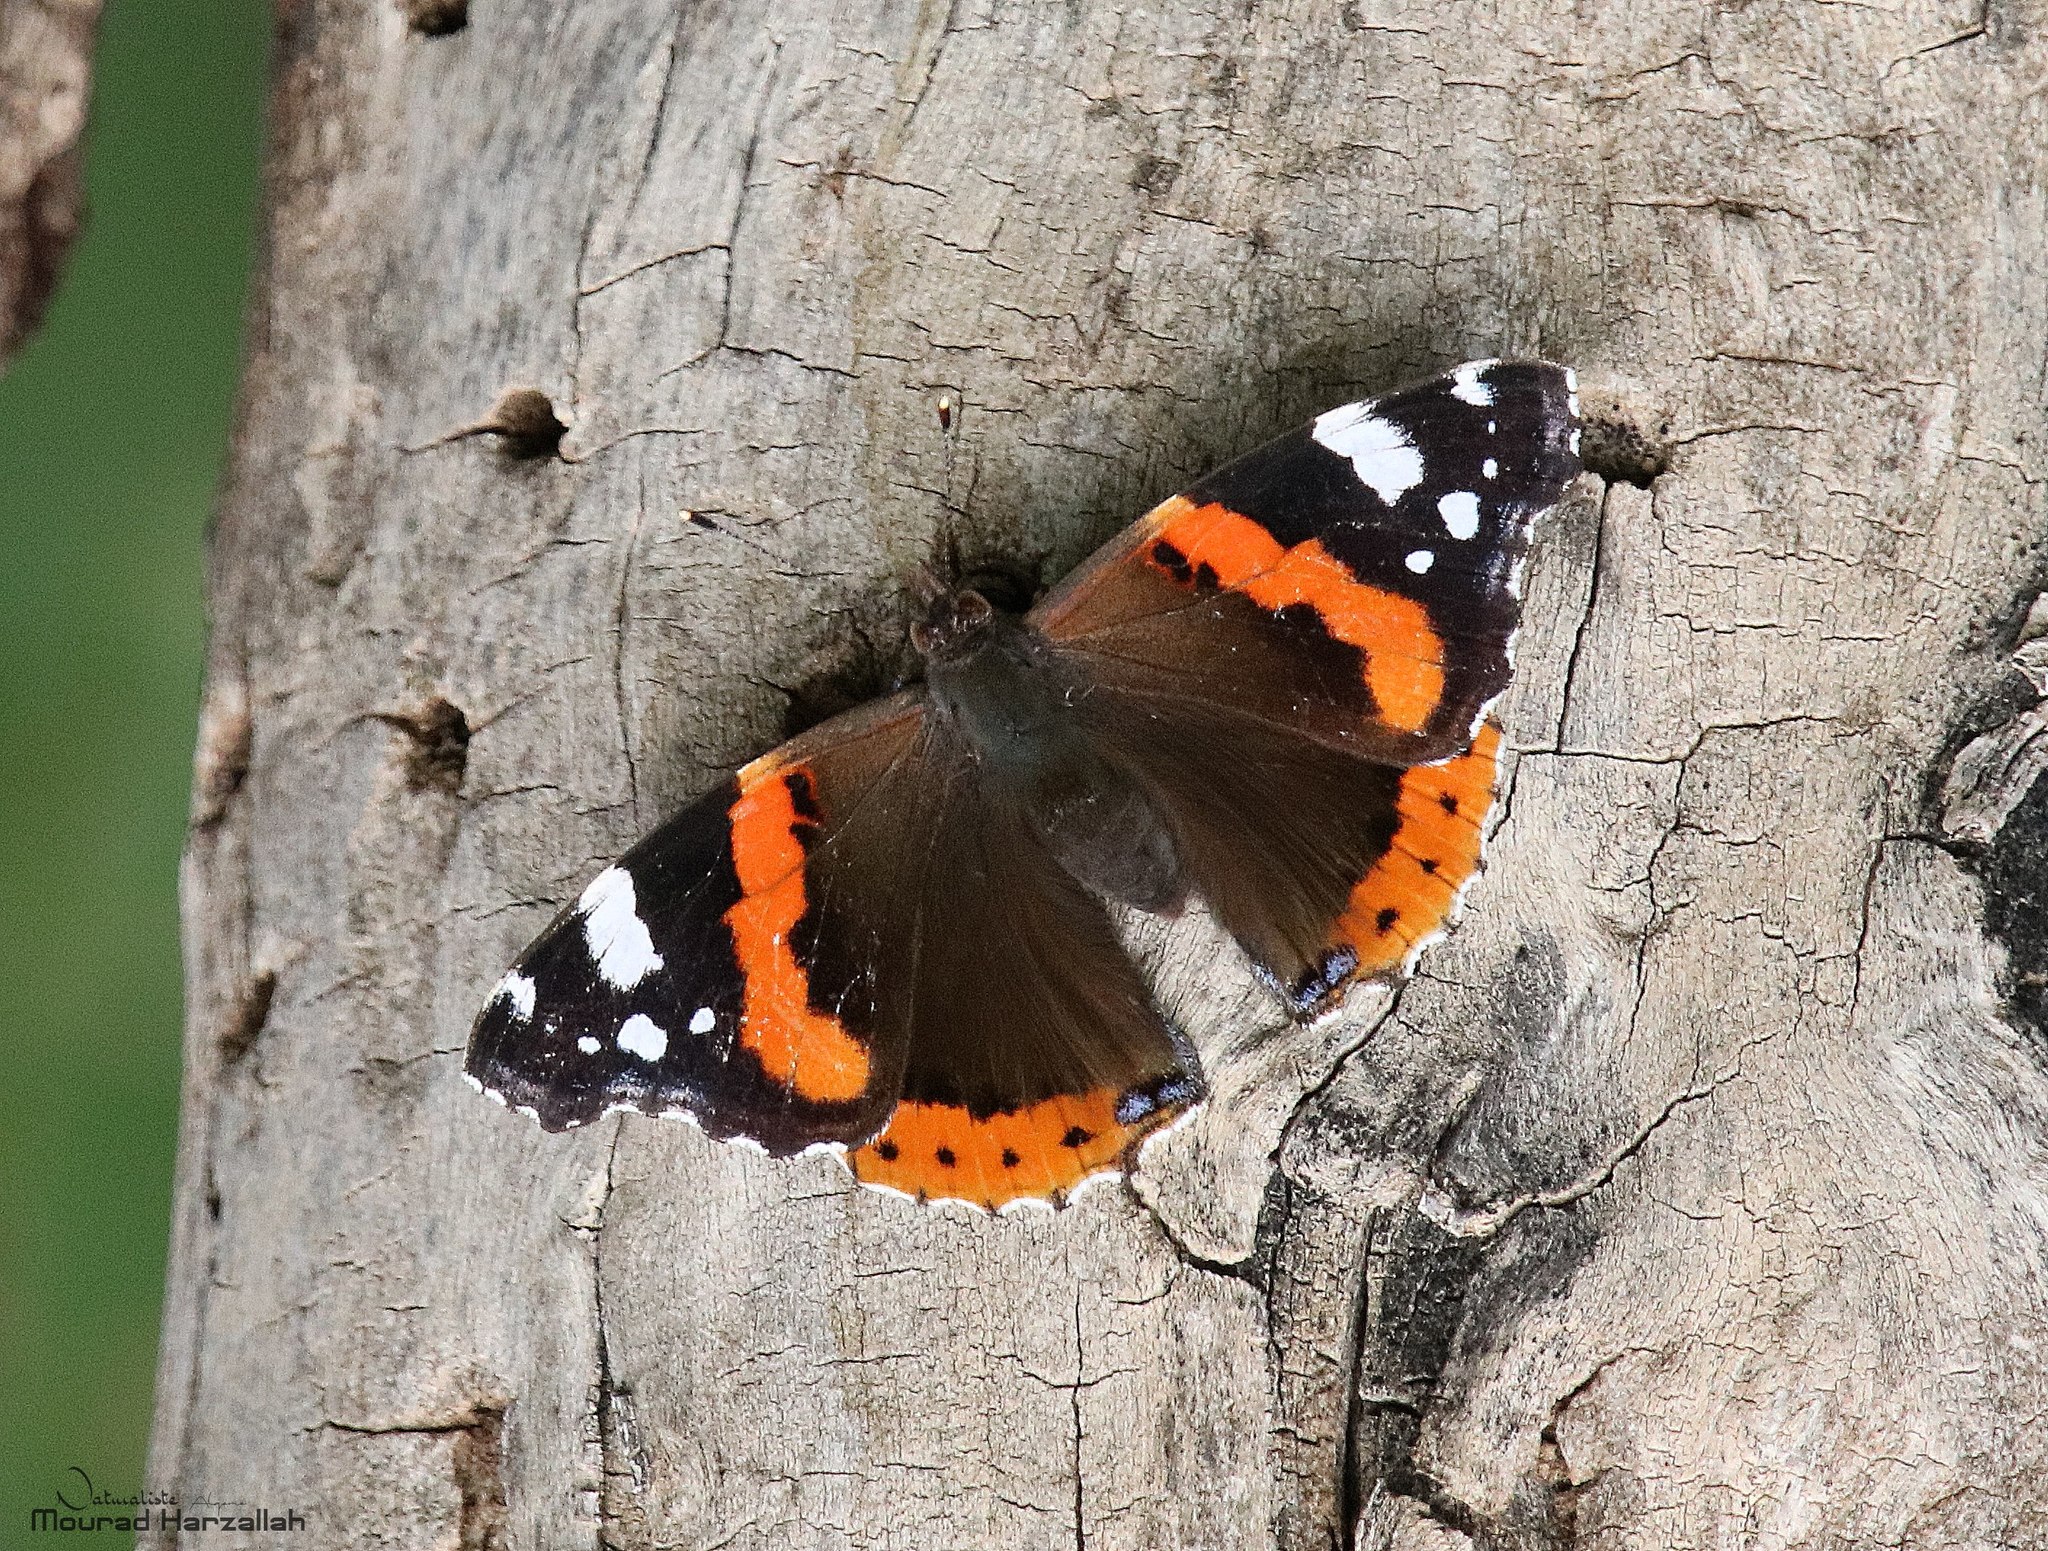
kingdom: Animalia
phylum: Arthropoda
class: Insecta
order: Lepidoptera
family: Nymphalidae
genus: Vanessa
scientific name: Vanessa atalanta
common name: Red admiral
